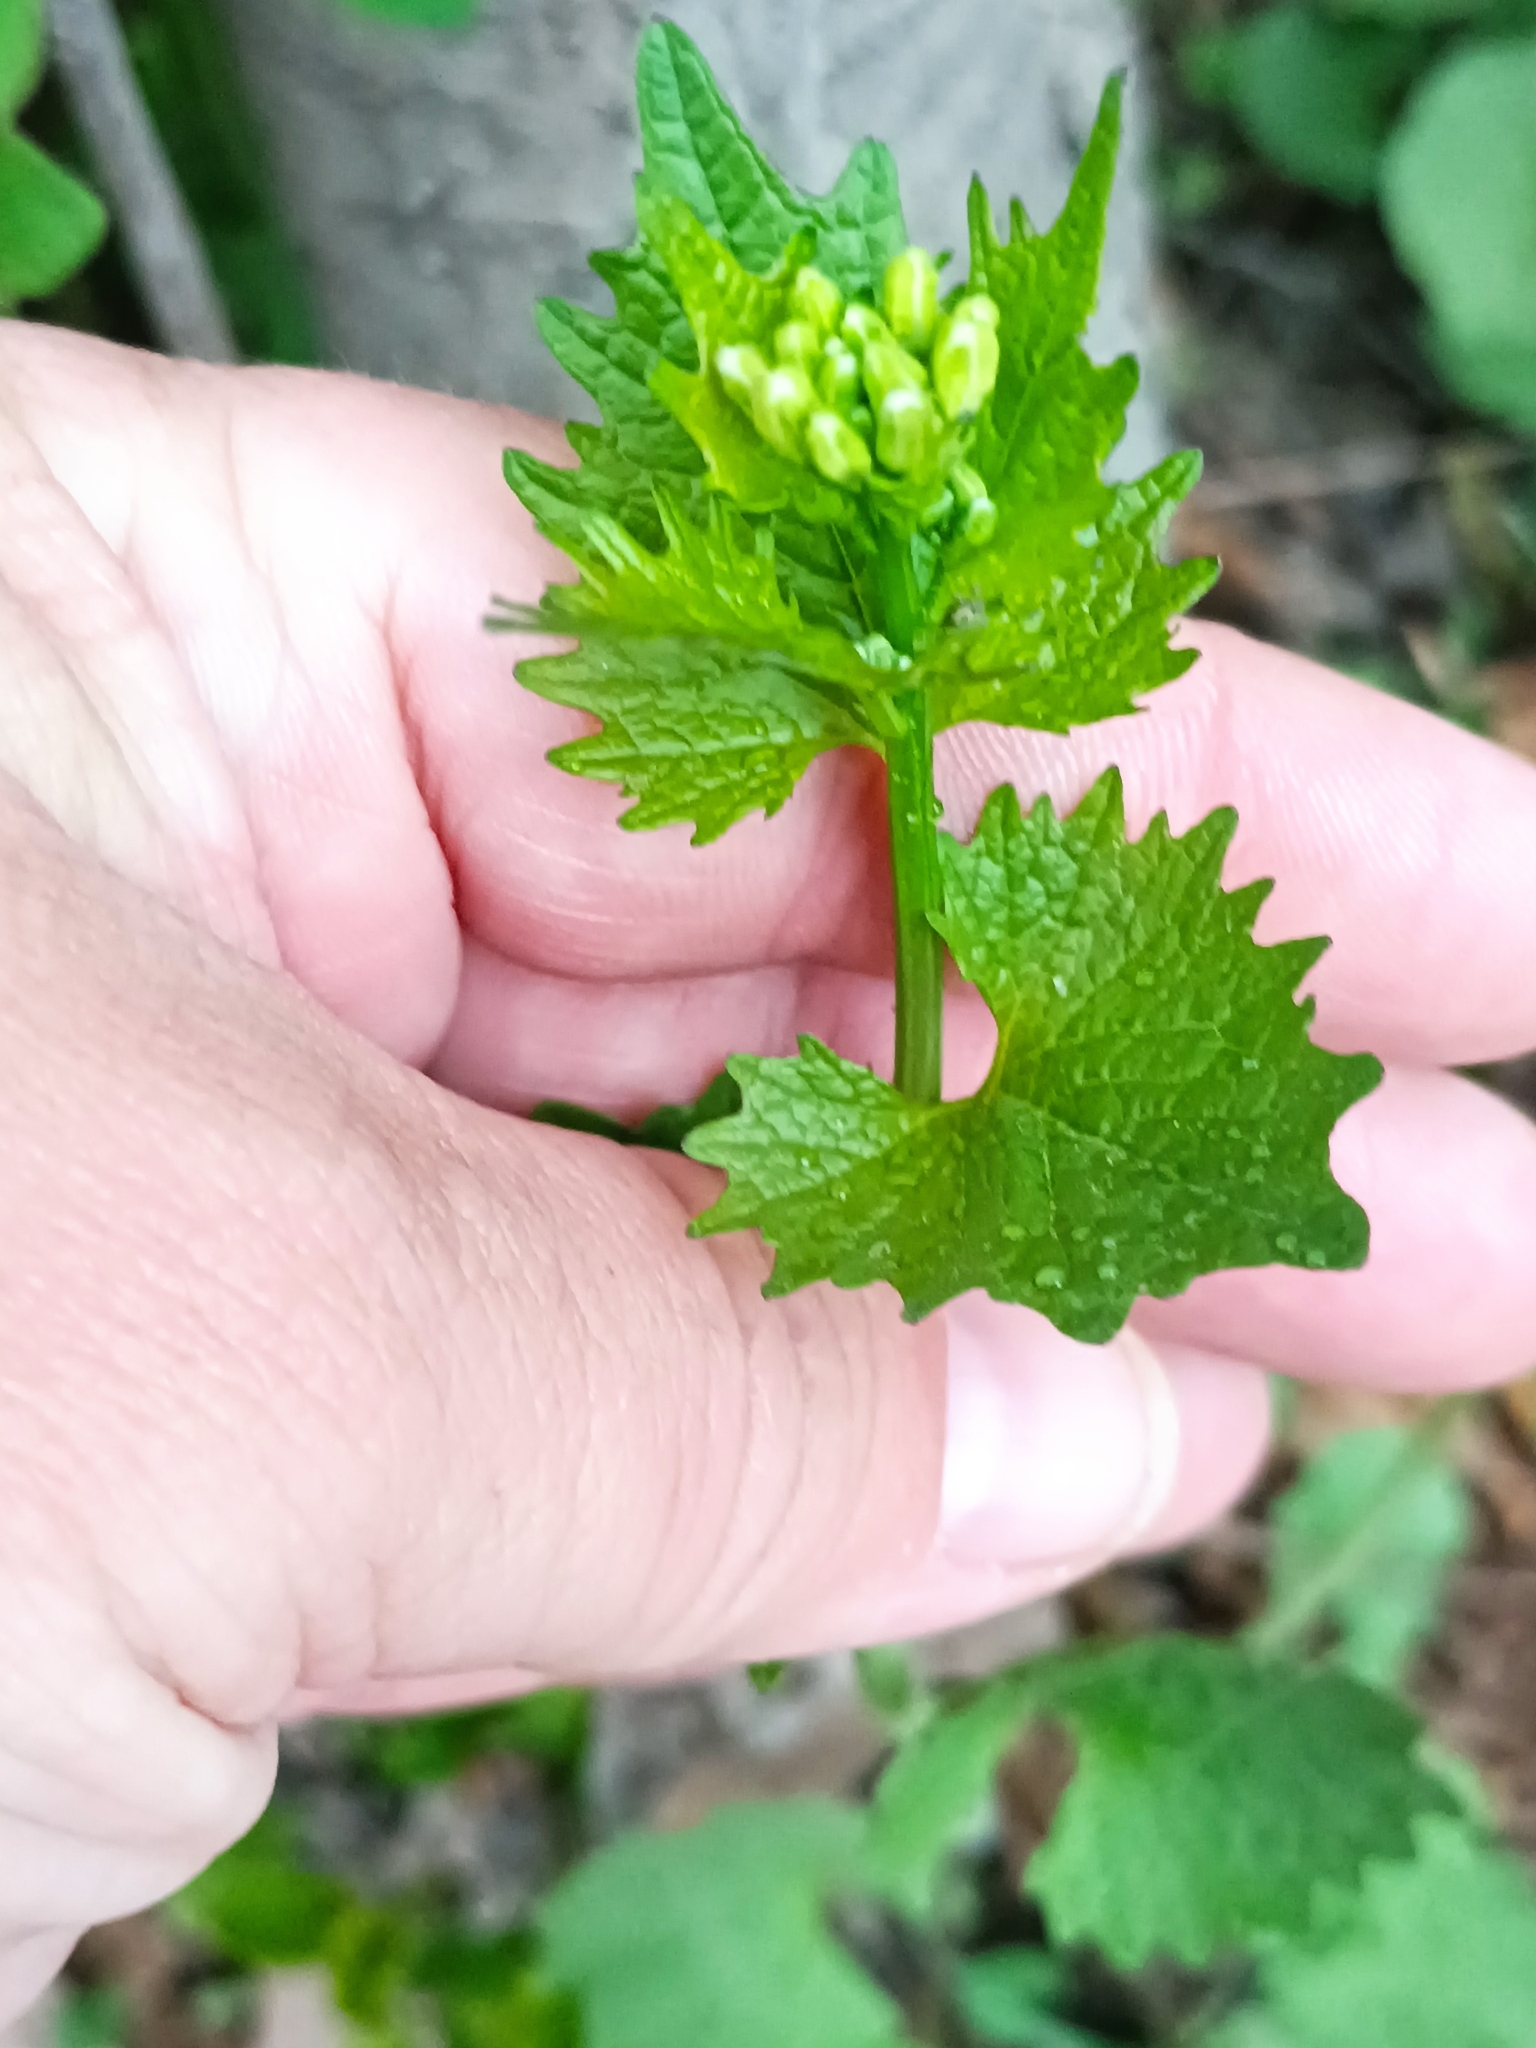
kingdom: Plantae
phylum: Tracheophyta
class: Magnoliopsida
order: Brassicales
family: Brassicaceae
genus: Alliaria
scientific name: Alliaria petiolata
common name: Garlic mustard
